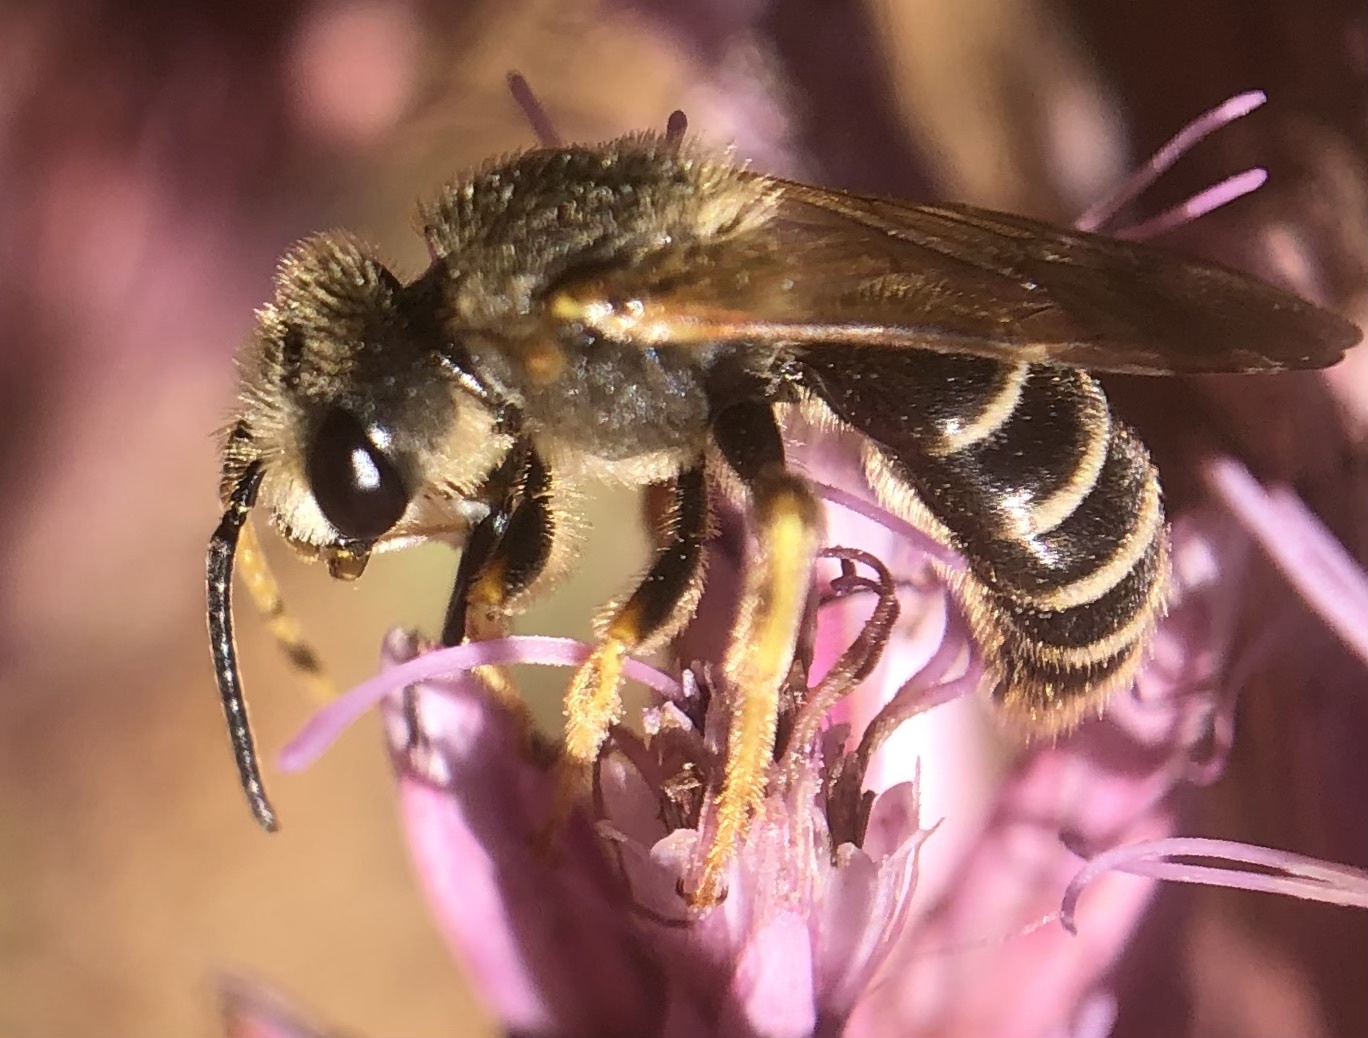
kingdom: Animalia
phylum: Arthropoda
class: Insecta
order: Hymenoptera
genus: Odontalictus
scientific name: Odontalictus
